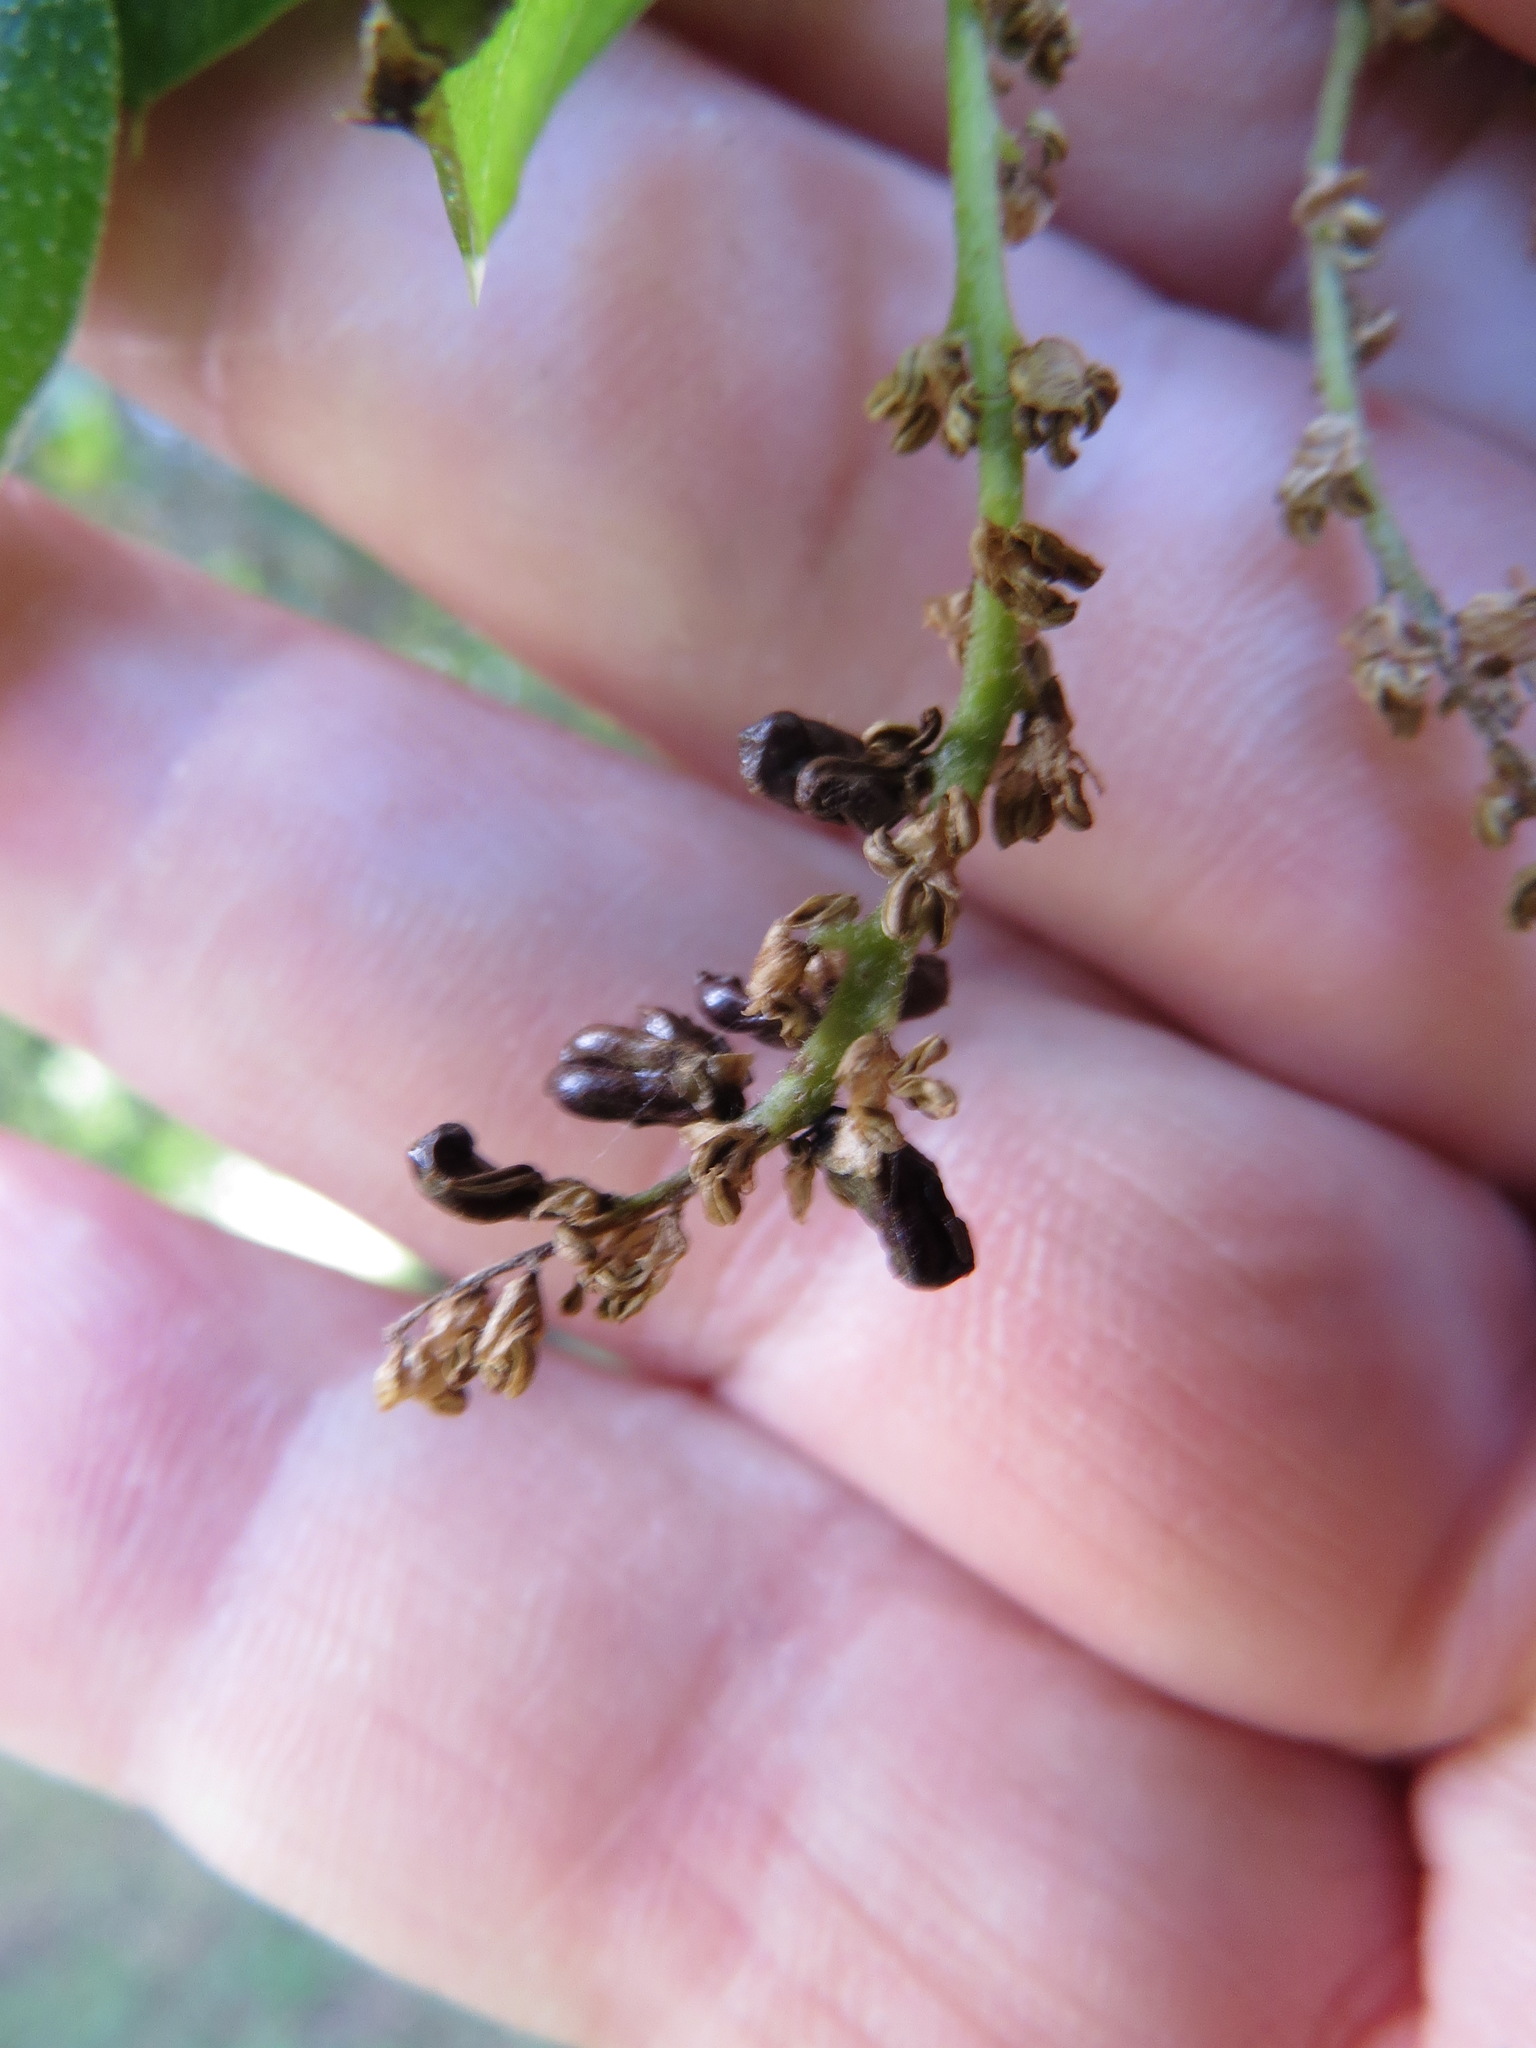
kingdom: Animalia
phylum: Arthropoda
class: Insecta
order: Hymenoptera
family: Cynipidae
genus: Dryocosmus
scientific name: Dryocosmus
